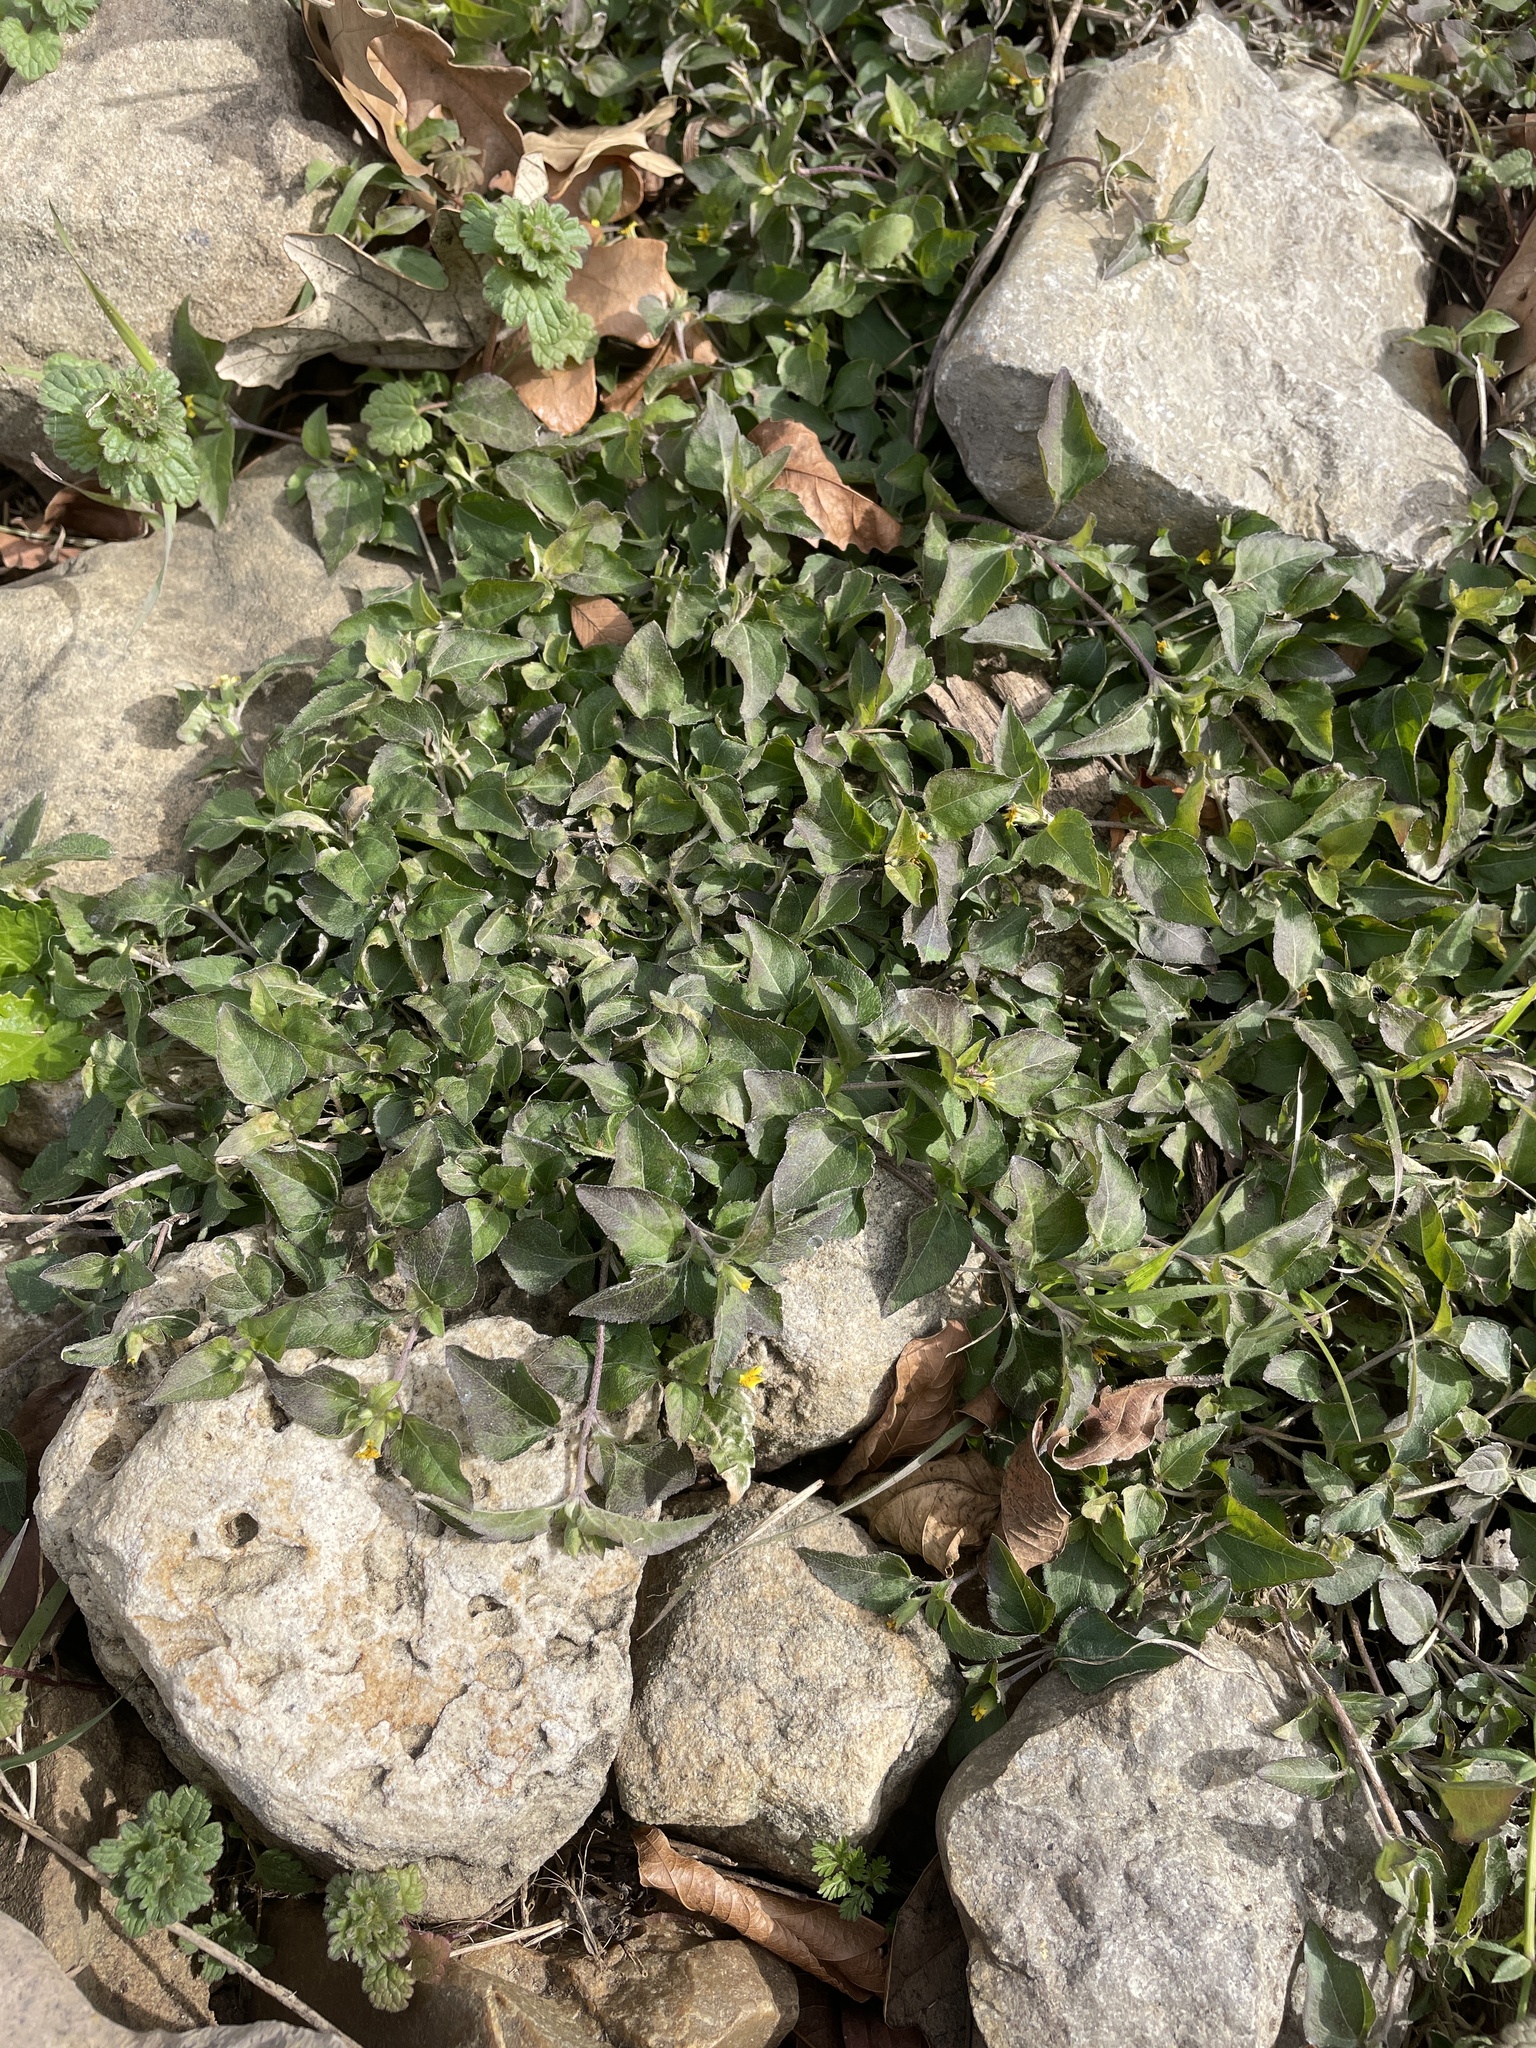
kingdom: Plantae
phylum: Tracheophyta
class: Magnoliopsida
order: Asterales
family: Asteraceae
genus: Calyptocarpus
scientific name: Calyptocarpus vialis
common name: Straggler daisy
